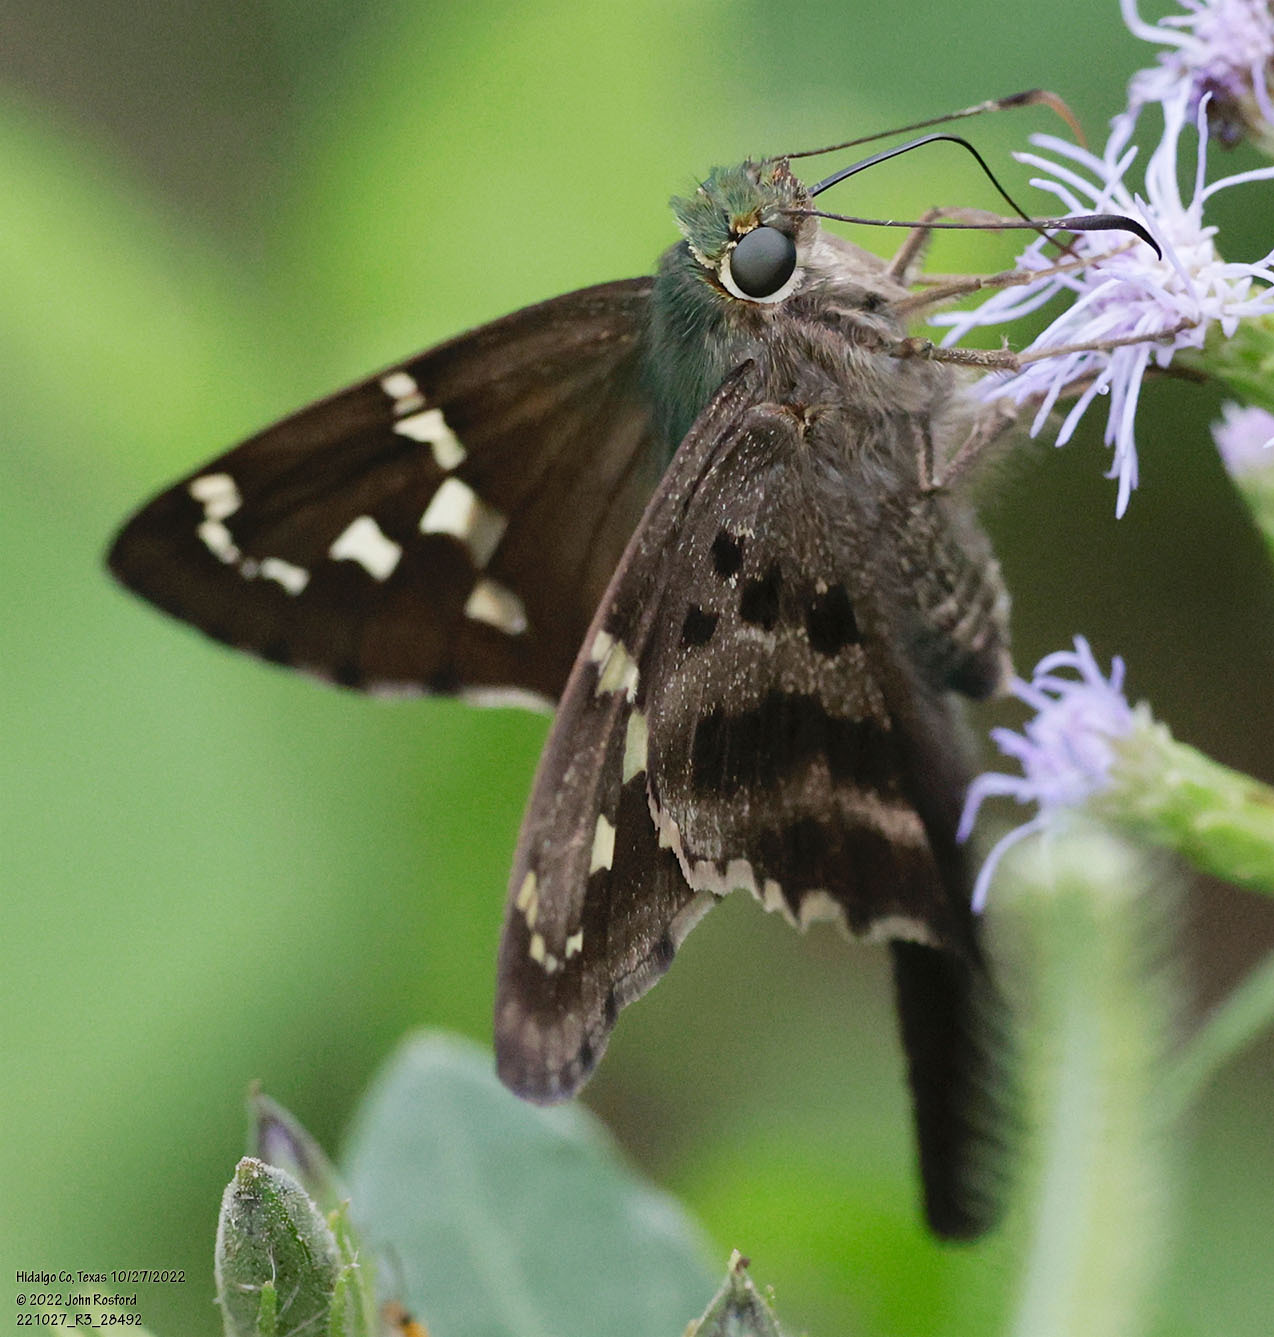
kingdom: Animalia
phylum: Arthropoda
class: Insecta
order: Lepidoptera
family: Hesperiidae
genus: Urbanus
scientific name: Urbanus proteus
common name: Long-tailed skipper
